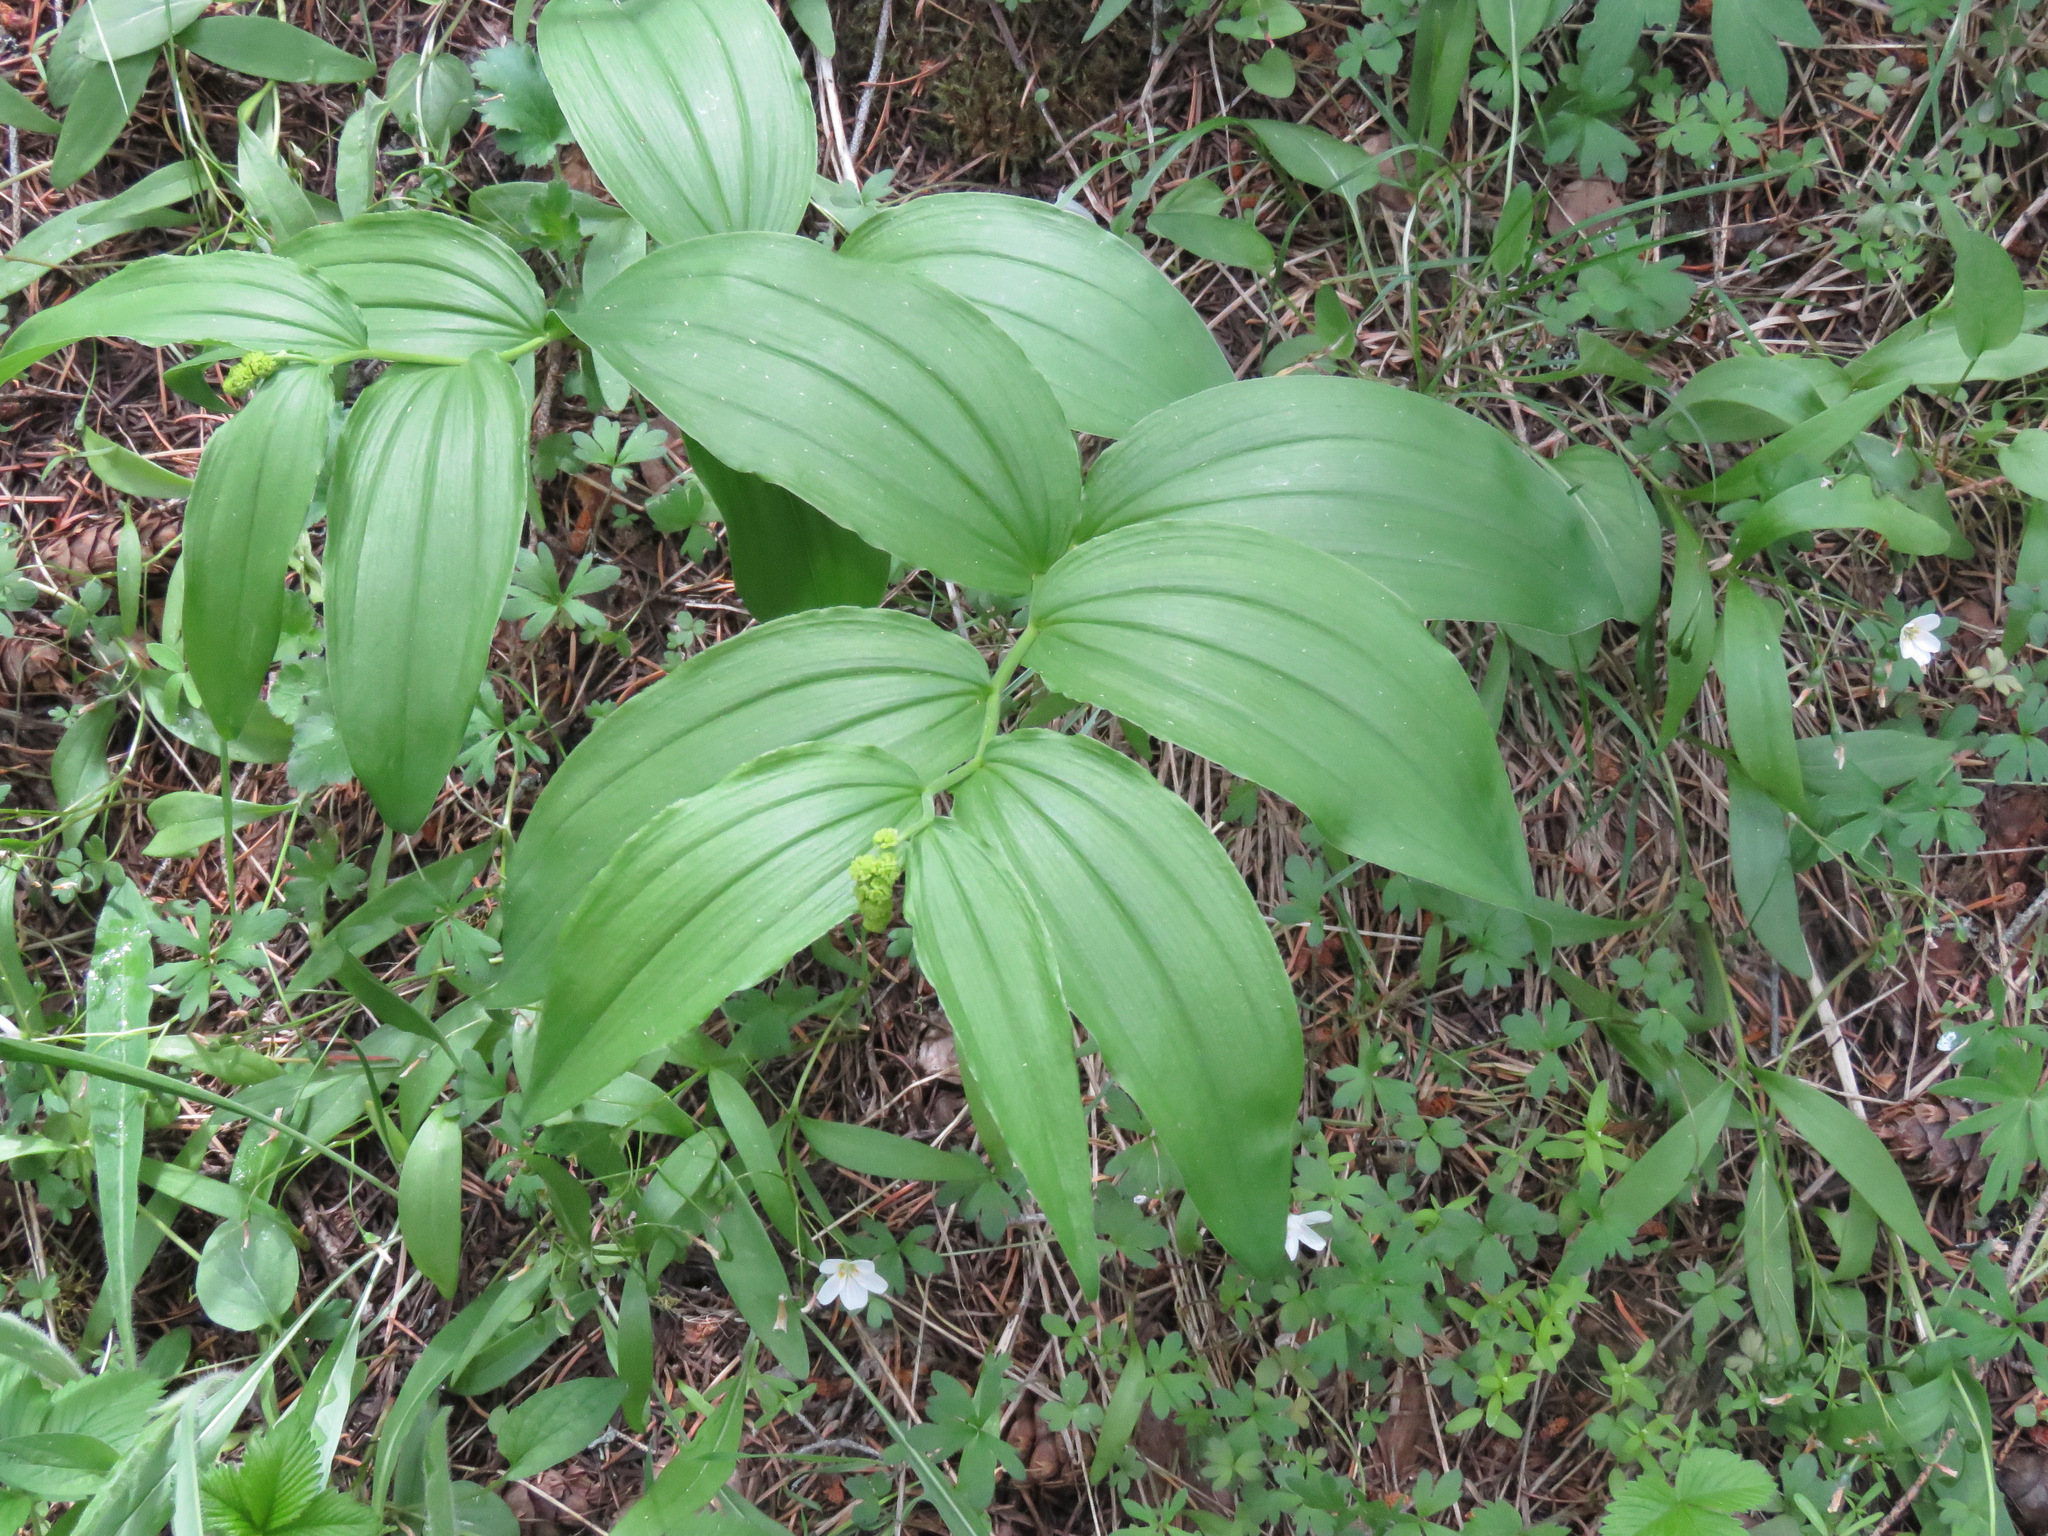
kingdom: Plantae
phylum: Tracheophyta
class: Liliopsida
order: Asparagales
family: Asparagaceae
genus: Maianthemum
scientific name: Maianthemum racemosum
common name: False spikenard
